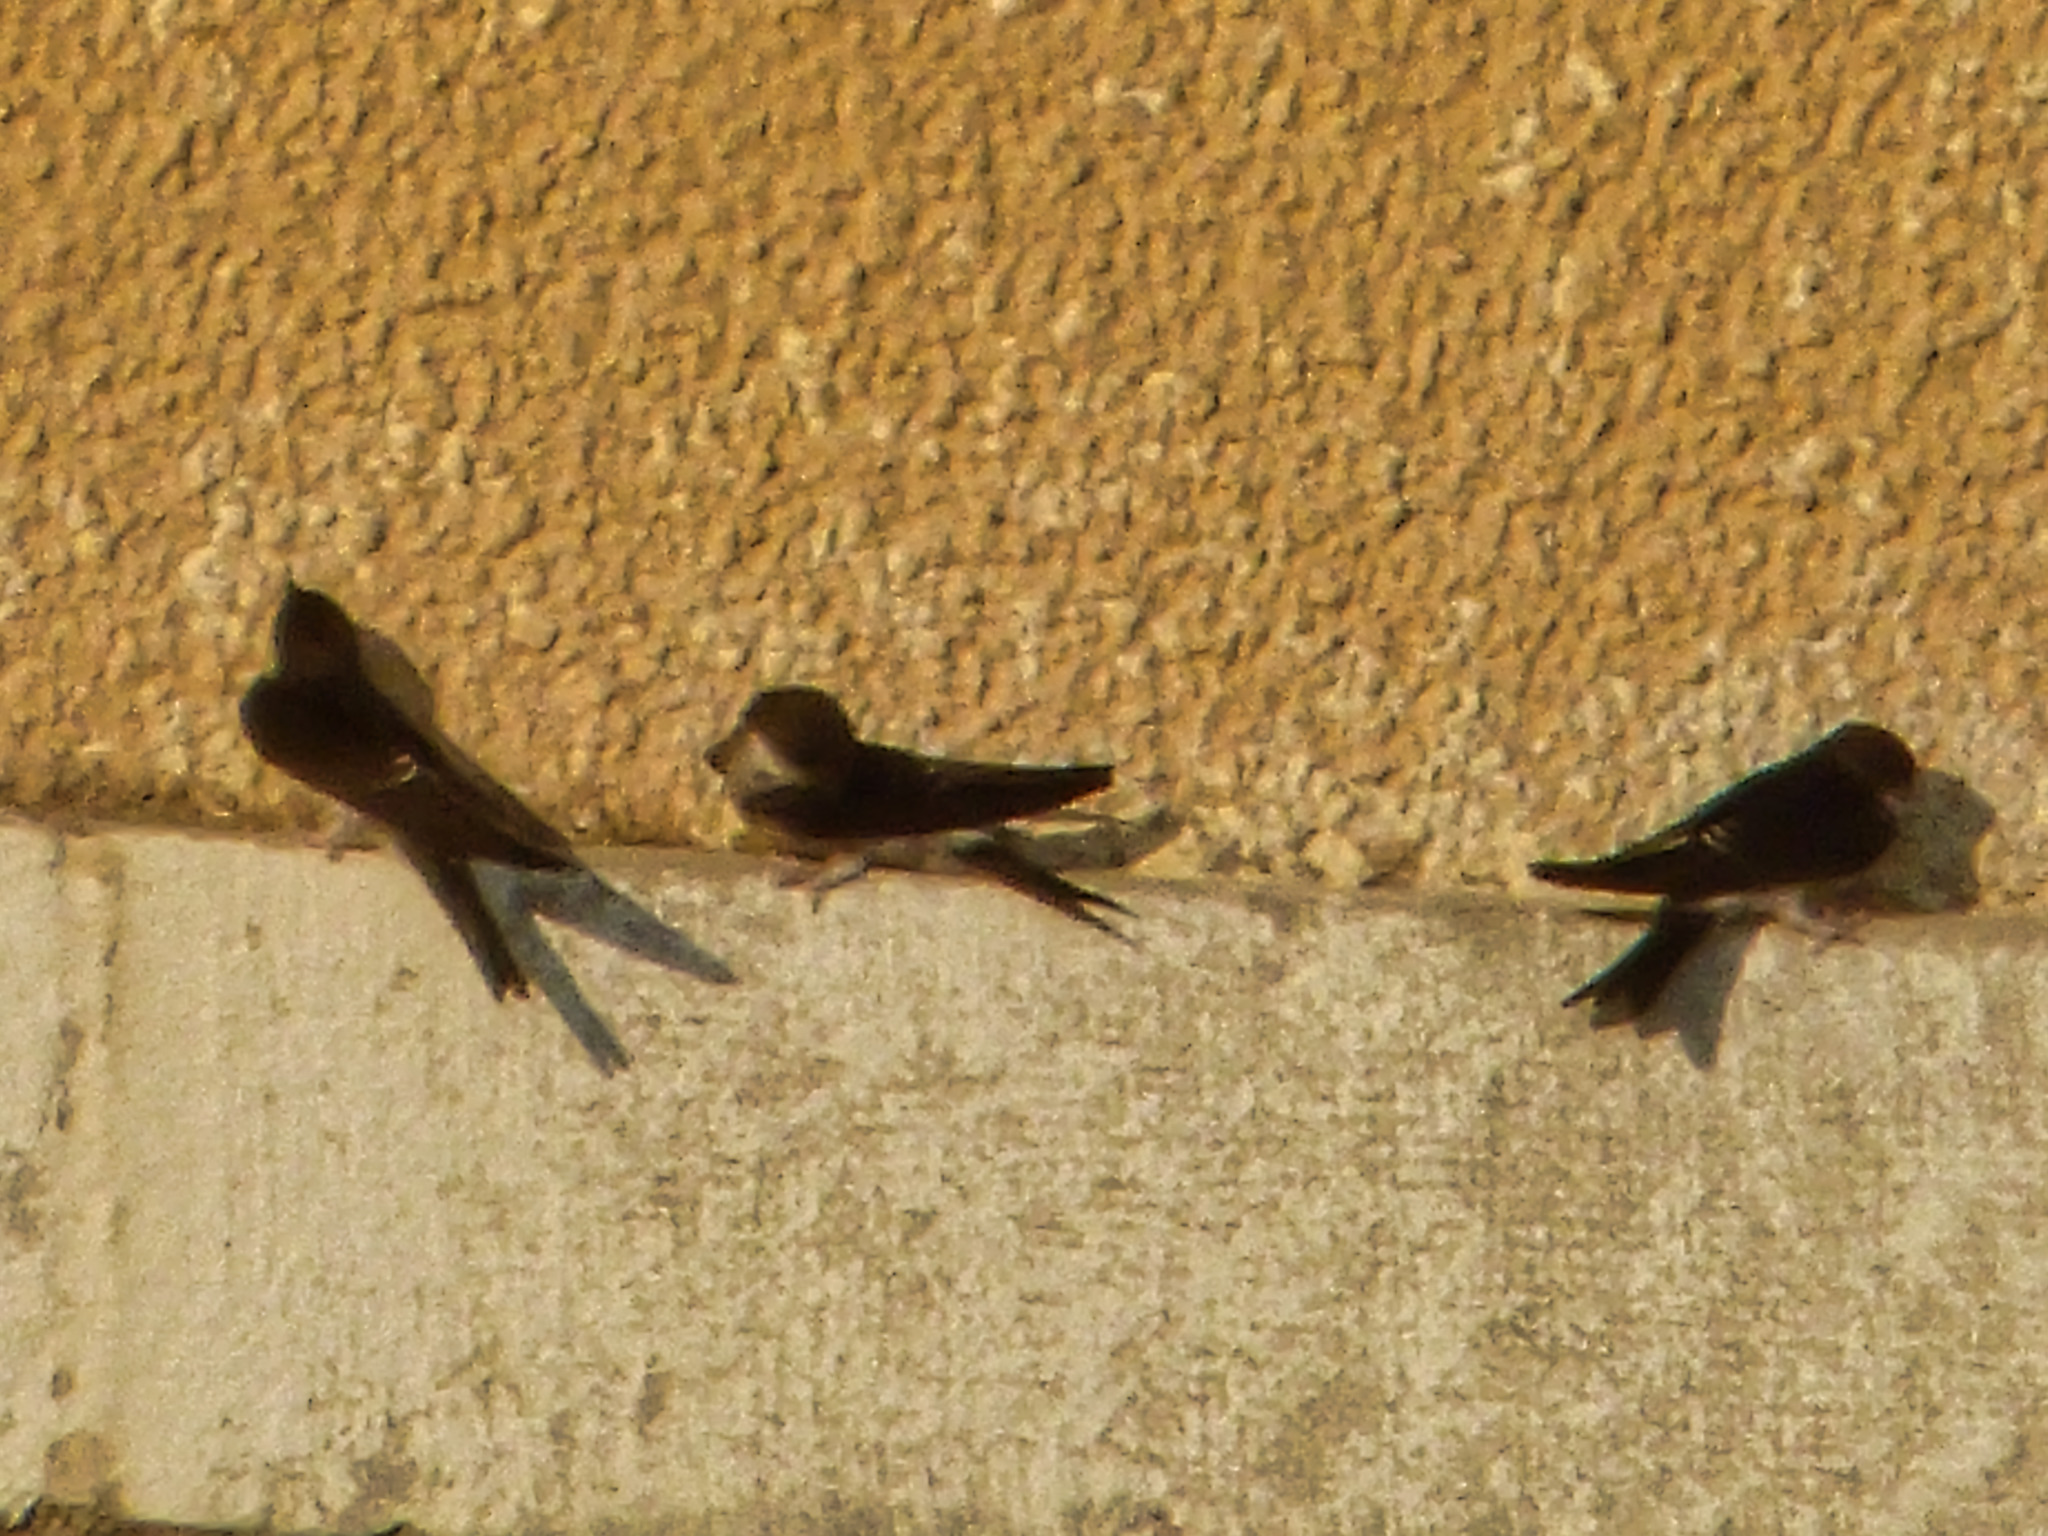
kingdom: Animalia
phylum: Chordata
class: Aves
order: Passeriformes
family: Hirundinidae
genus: Hirundo
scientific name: Hirundo rustica
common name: Barn swallow
